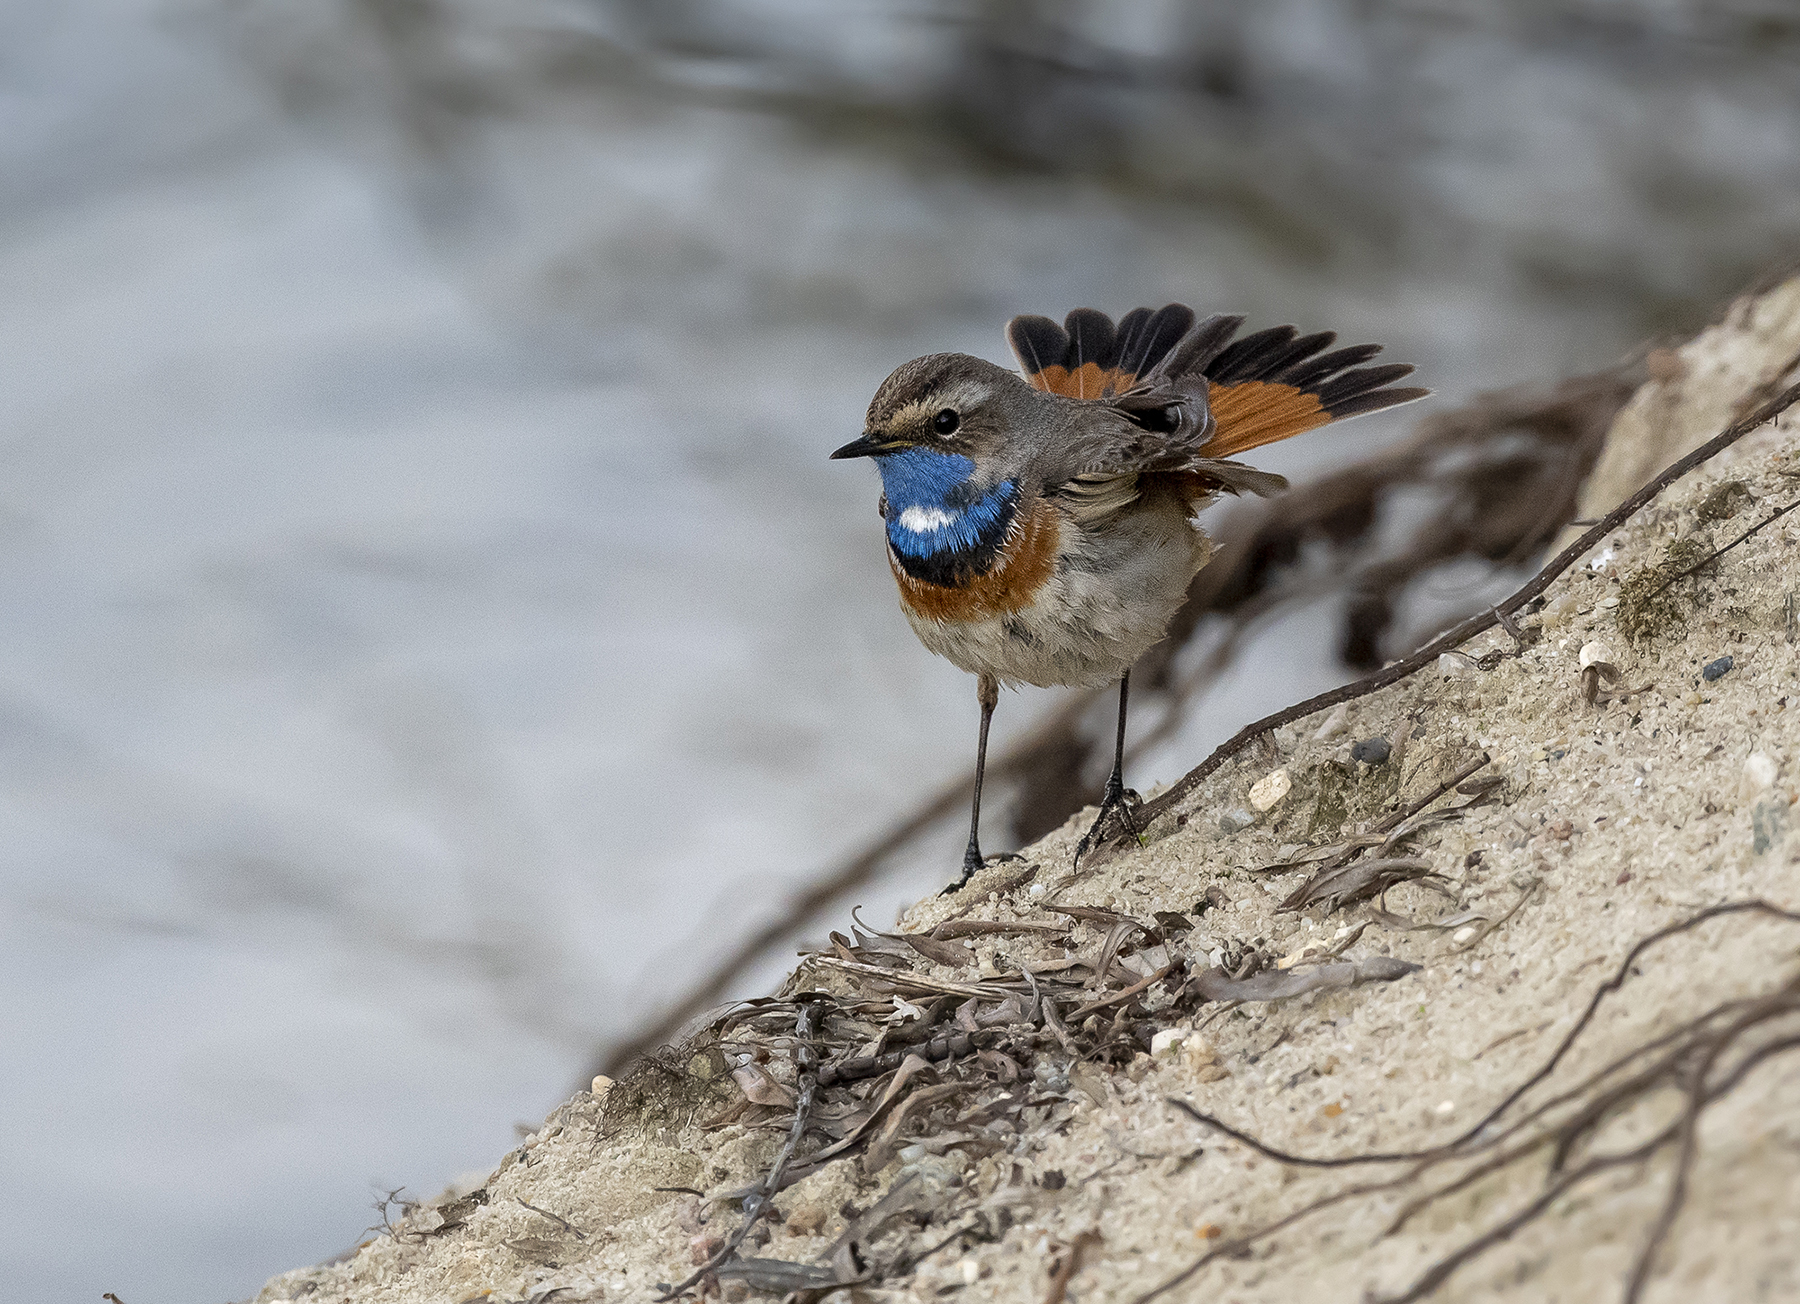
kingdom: Animalia
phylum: Chordata
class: Aves
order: Passeriformes
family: Muscicapidae
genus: Luscinia
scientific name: Luscinia svecica
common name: Bluethroat
